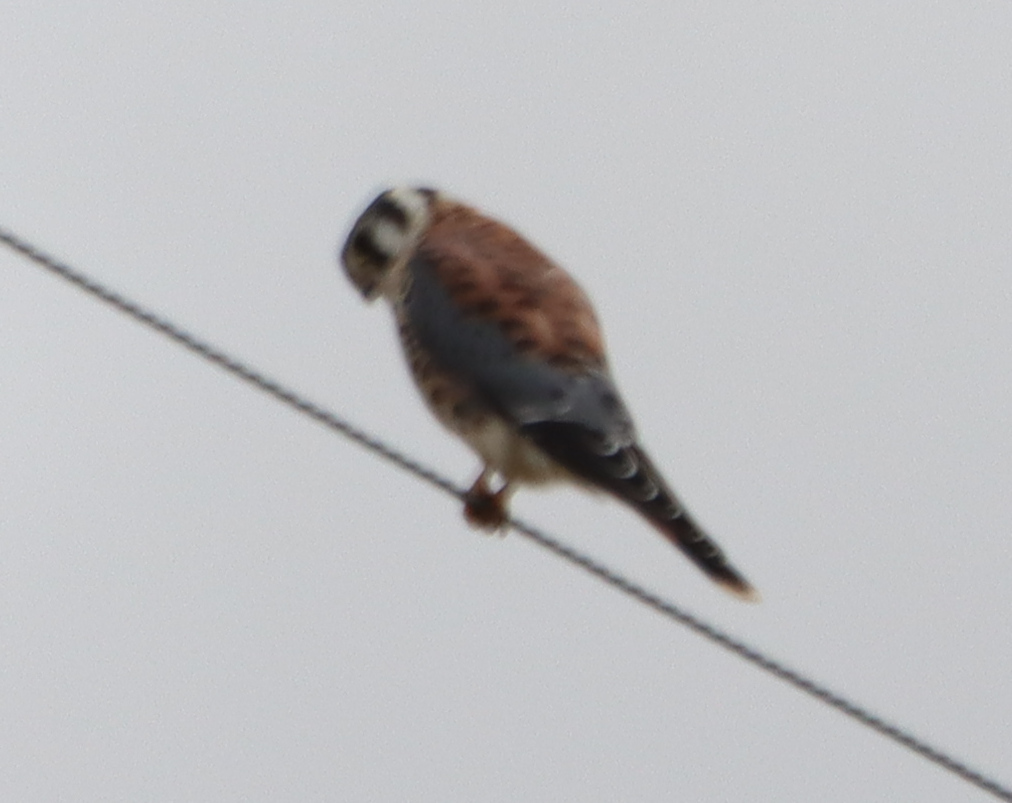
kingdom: Animalia
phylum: Chordata
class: Aves
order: Falconiformes
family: Falconidae
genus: Falco
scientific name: Falco sparverius
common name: American kestrel
